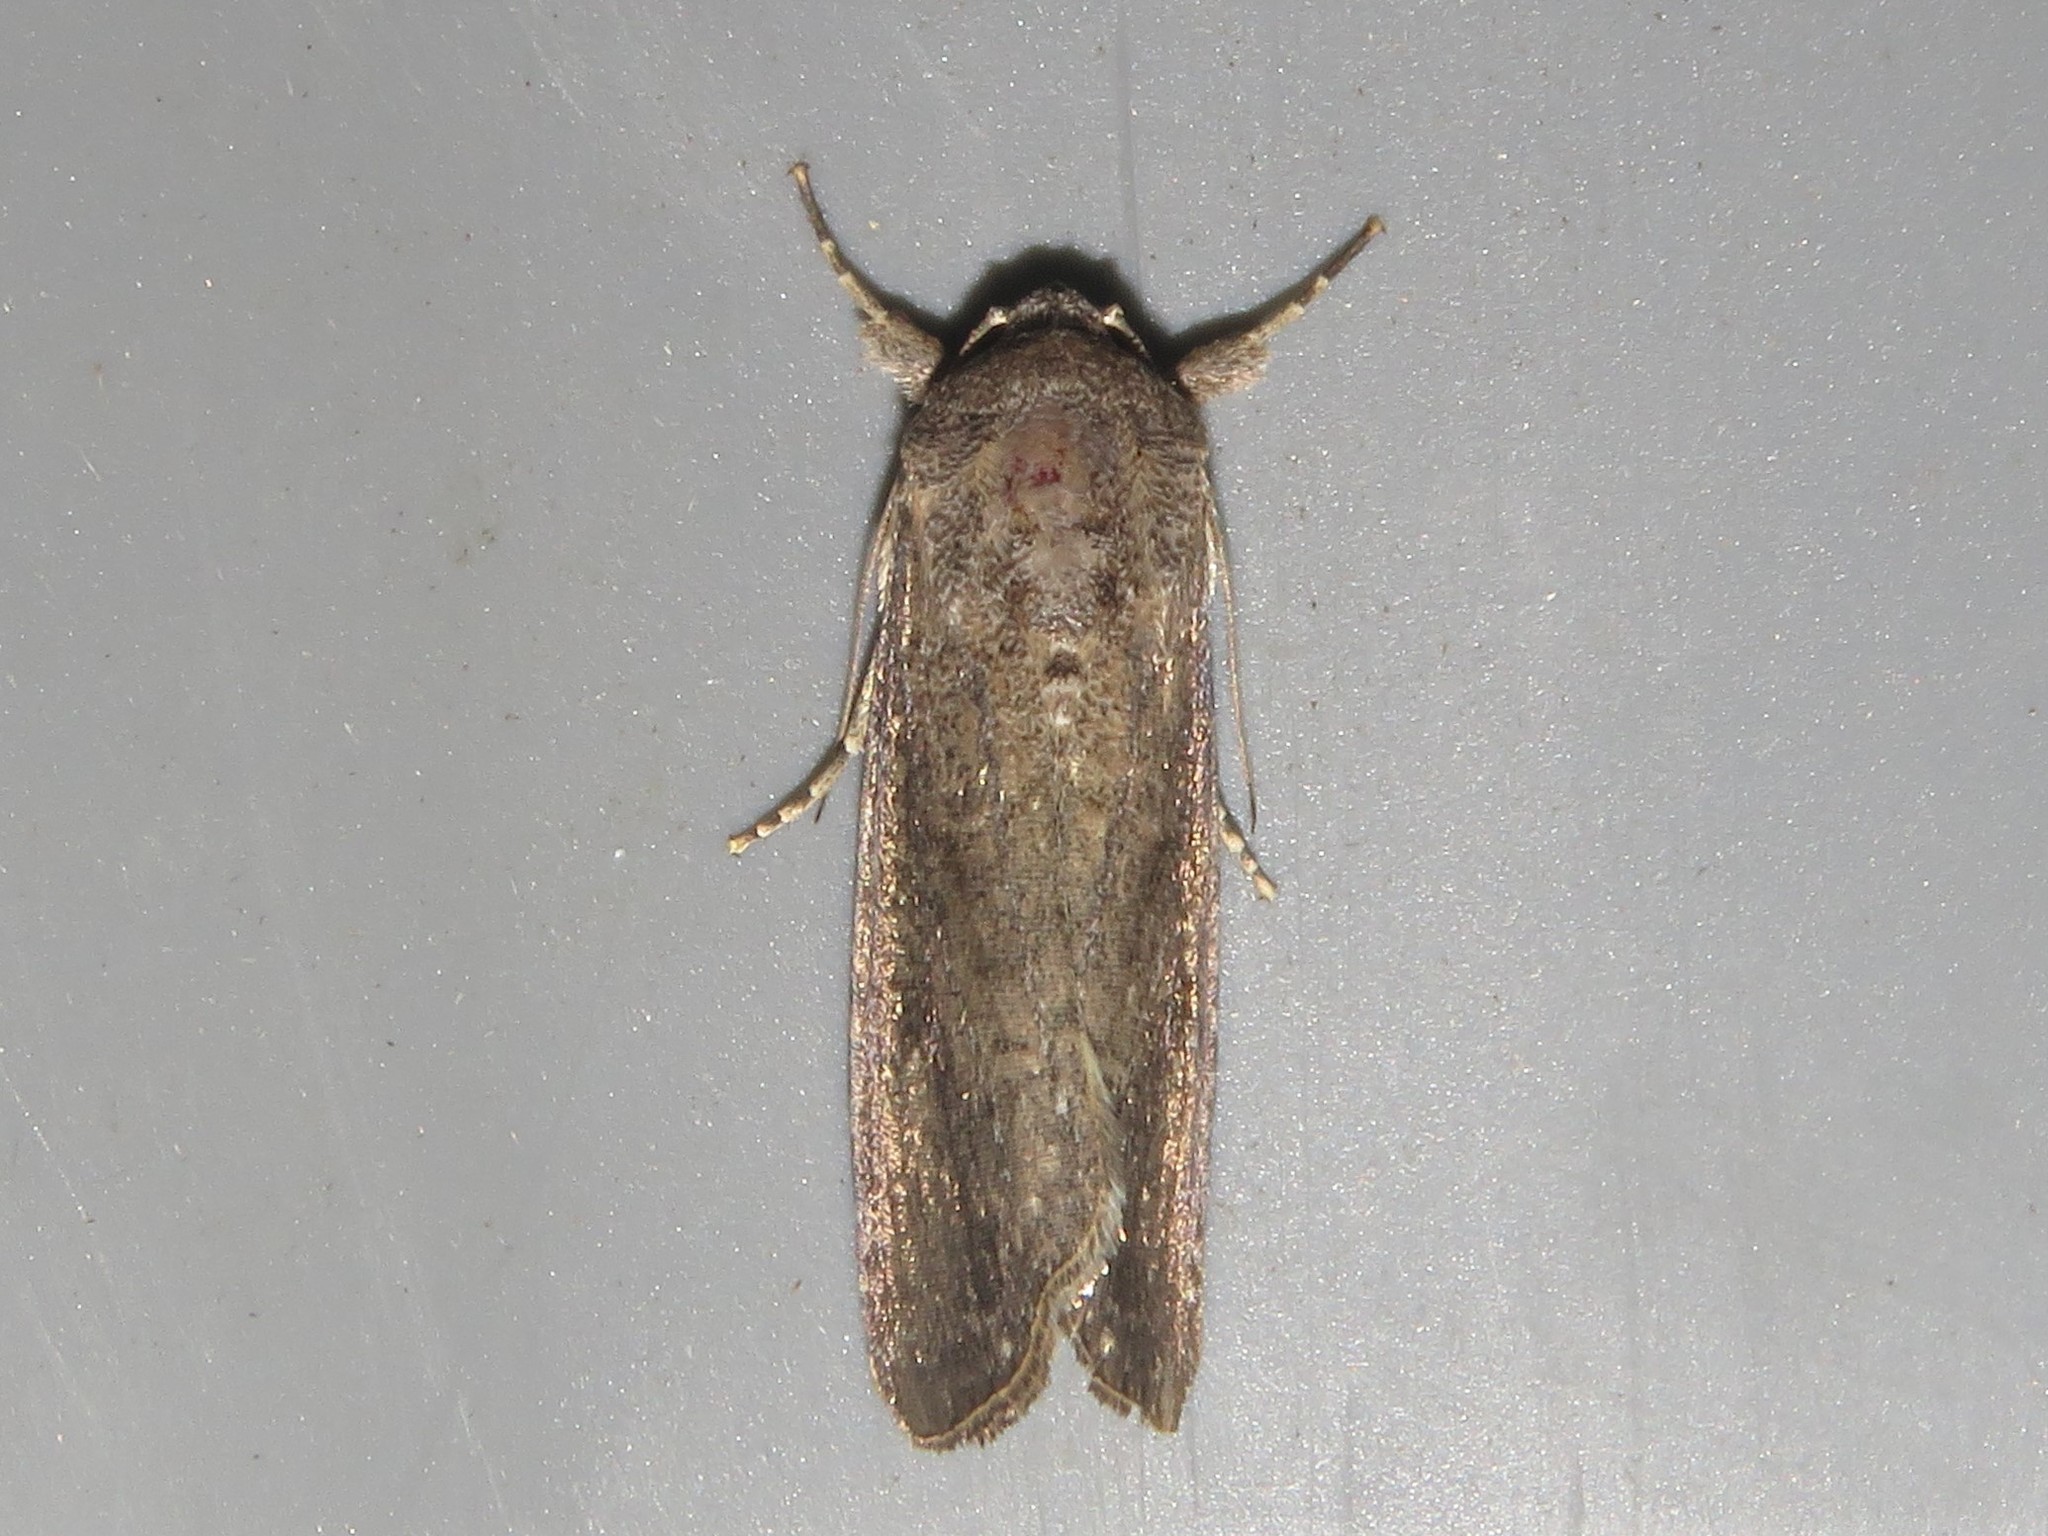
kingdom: Animalia
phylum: Arthropoda
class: Insecta
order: Lepidoptera
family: Noctuidae
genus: Spodoptera
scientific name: Spodoptera frugiperda
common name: Fall armyworm
